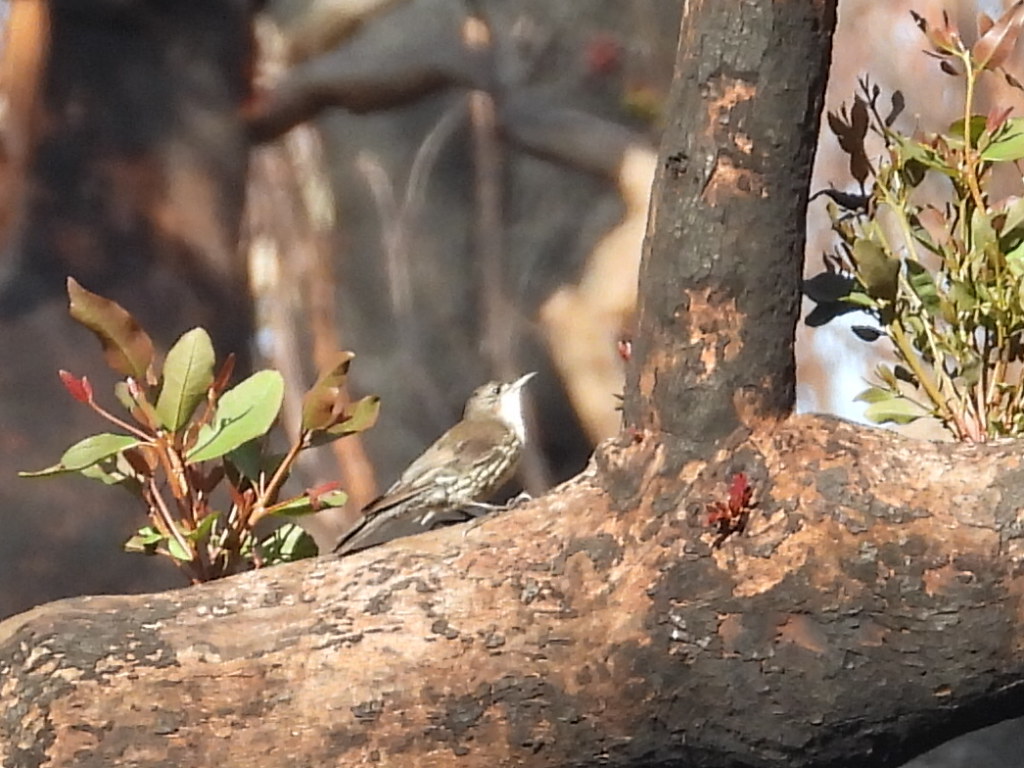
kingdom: Animalia
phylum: Chordata
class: Aves
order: Passeriformes
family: Climacteridae
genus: Cormobates
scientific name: Cormobates leucophaea
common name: White-throated treecreeper
